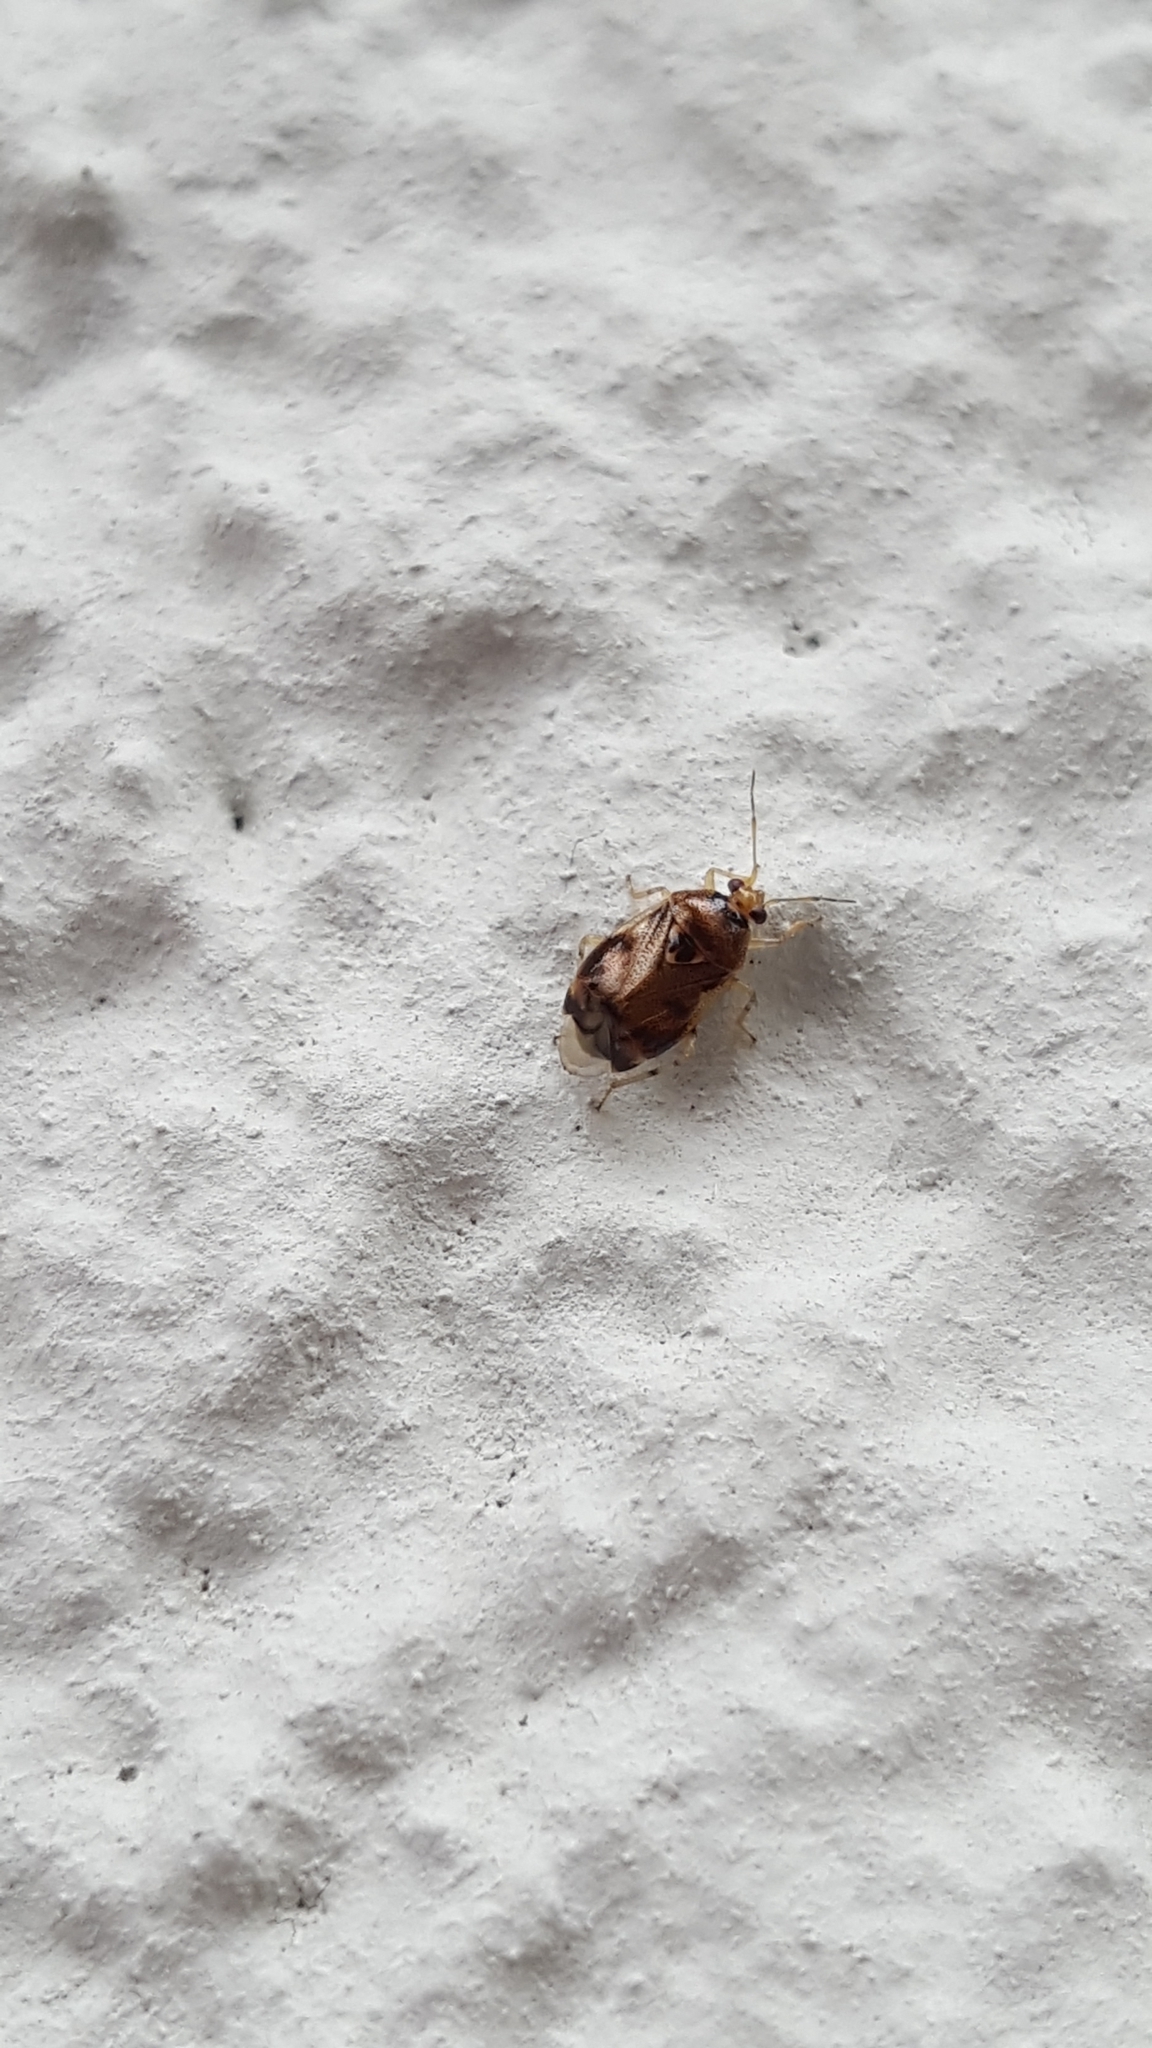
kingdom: Animalia
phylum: Arthropoda
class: Insecta
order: Hemiptera
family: Miridae
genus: Deraeocoris
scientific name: Deraeocoris lutescens
